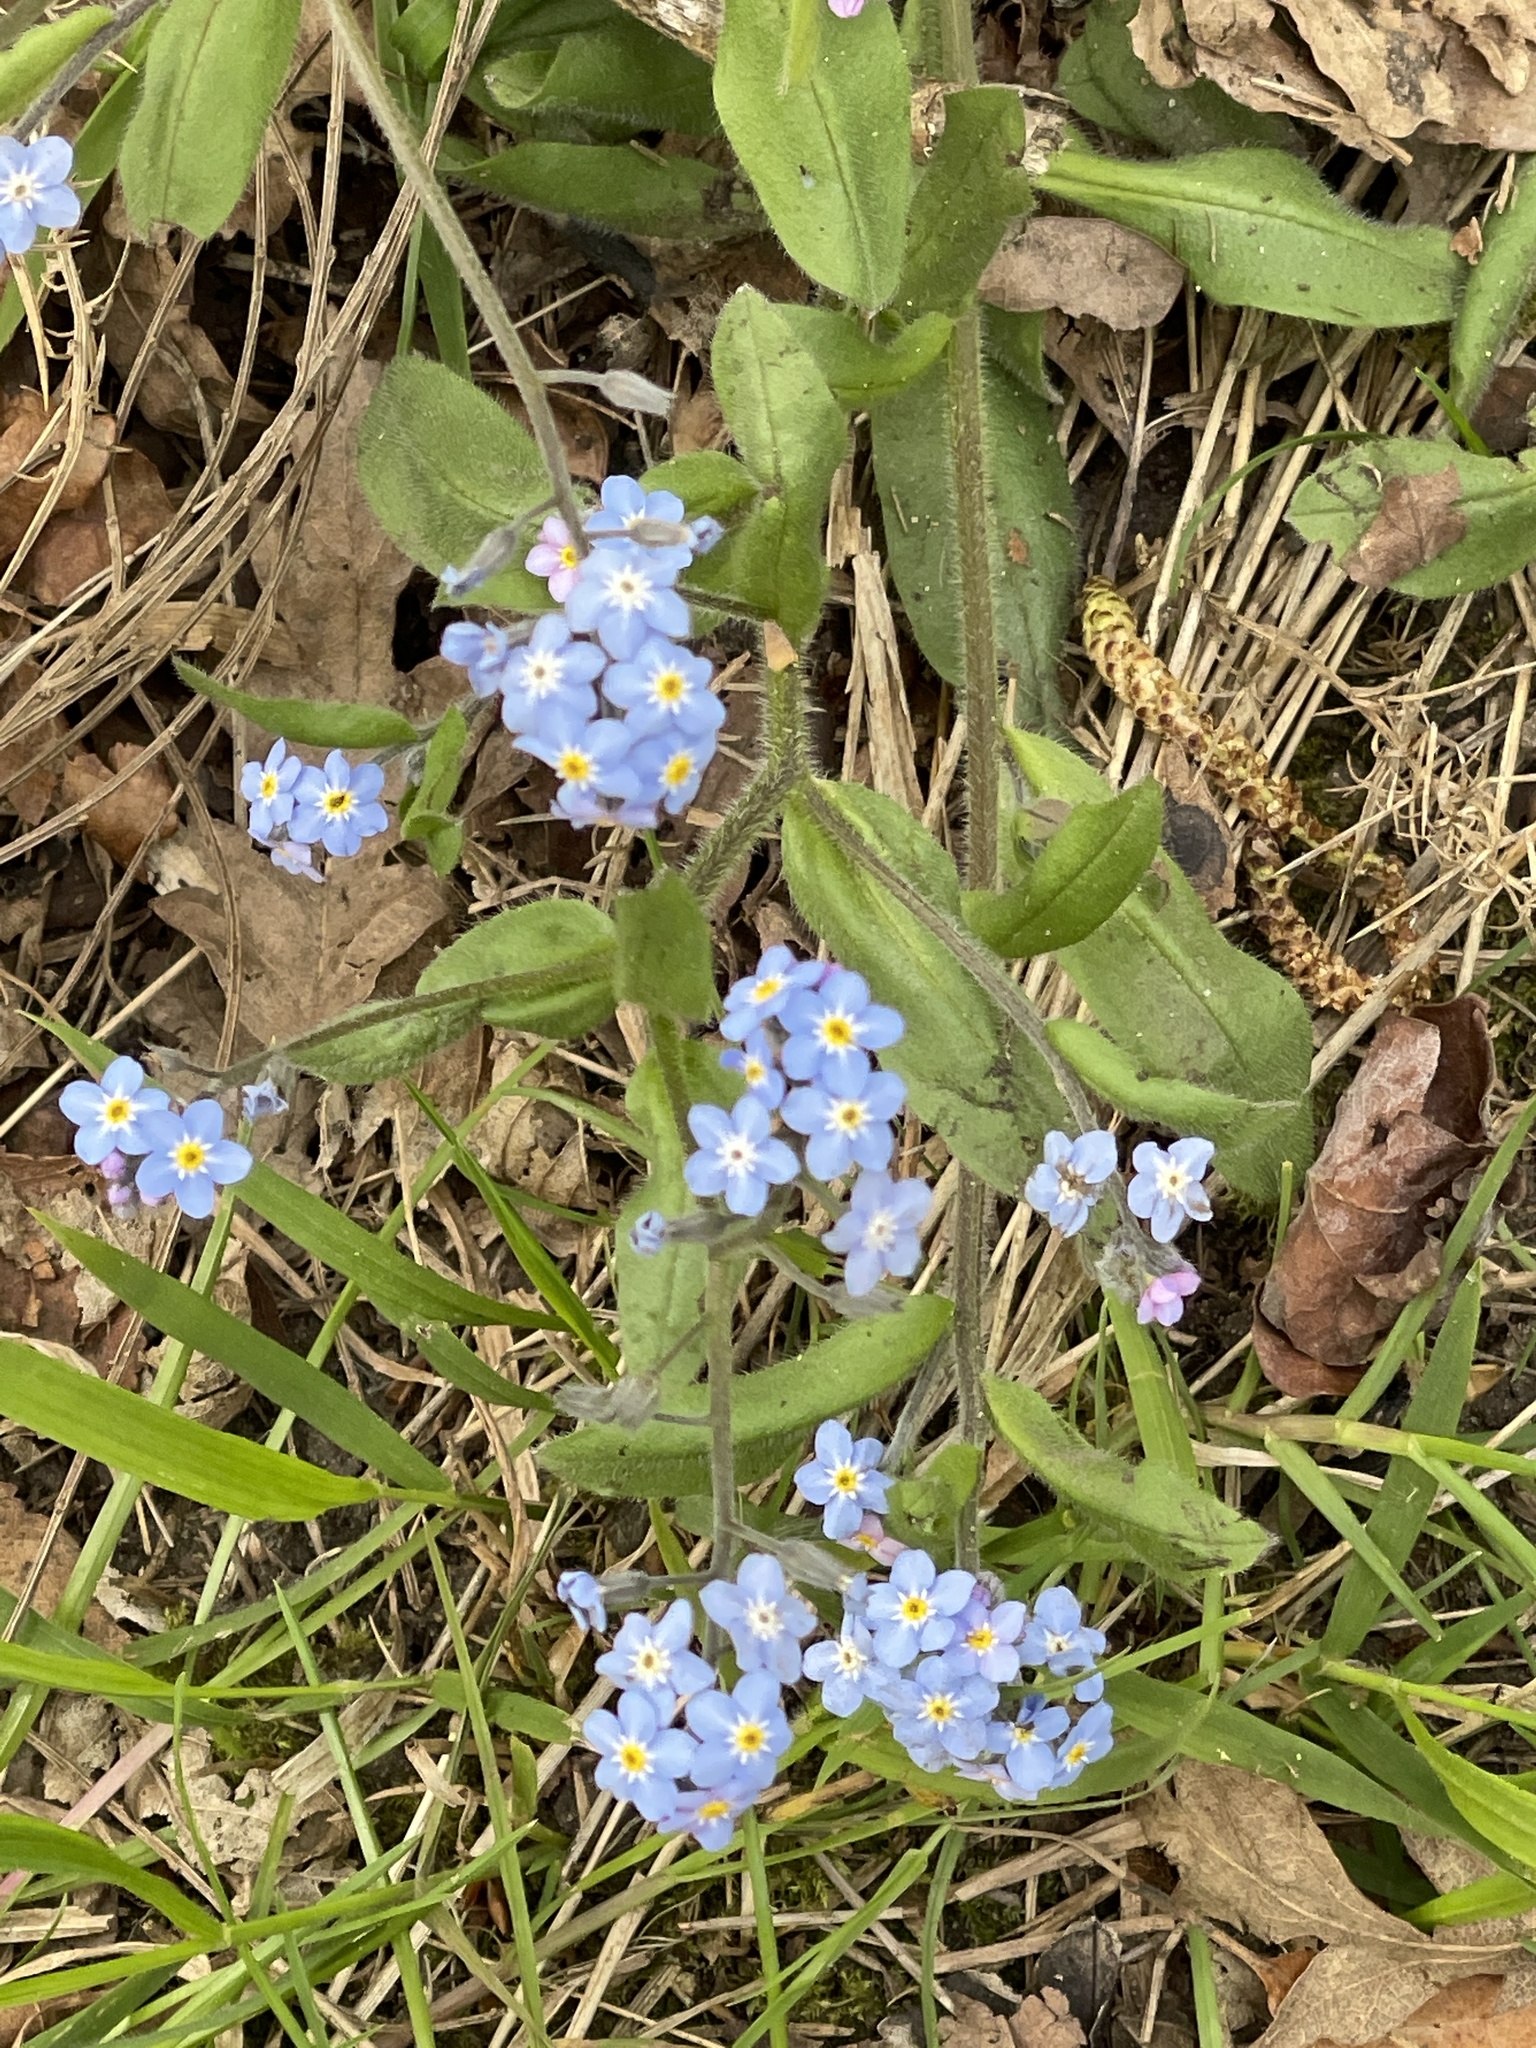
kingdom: Plantae
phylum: Tracheophyta
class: Magnoliopsida
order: Boraginales
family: Boraginaceae
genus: Myosotis
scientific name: Myosotis sylvatica
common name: Wood forget-me-not
